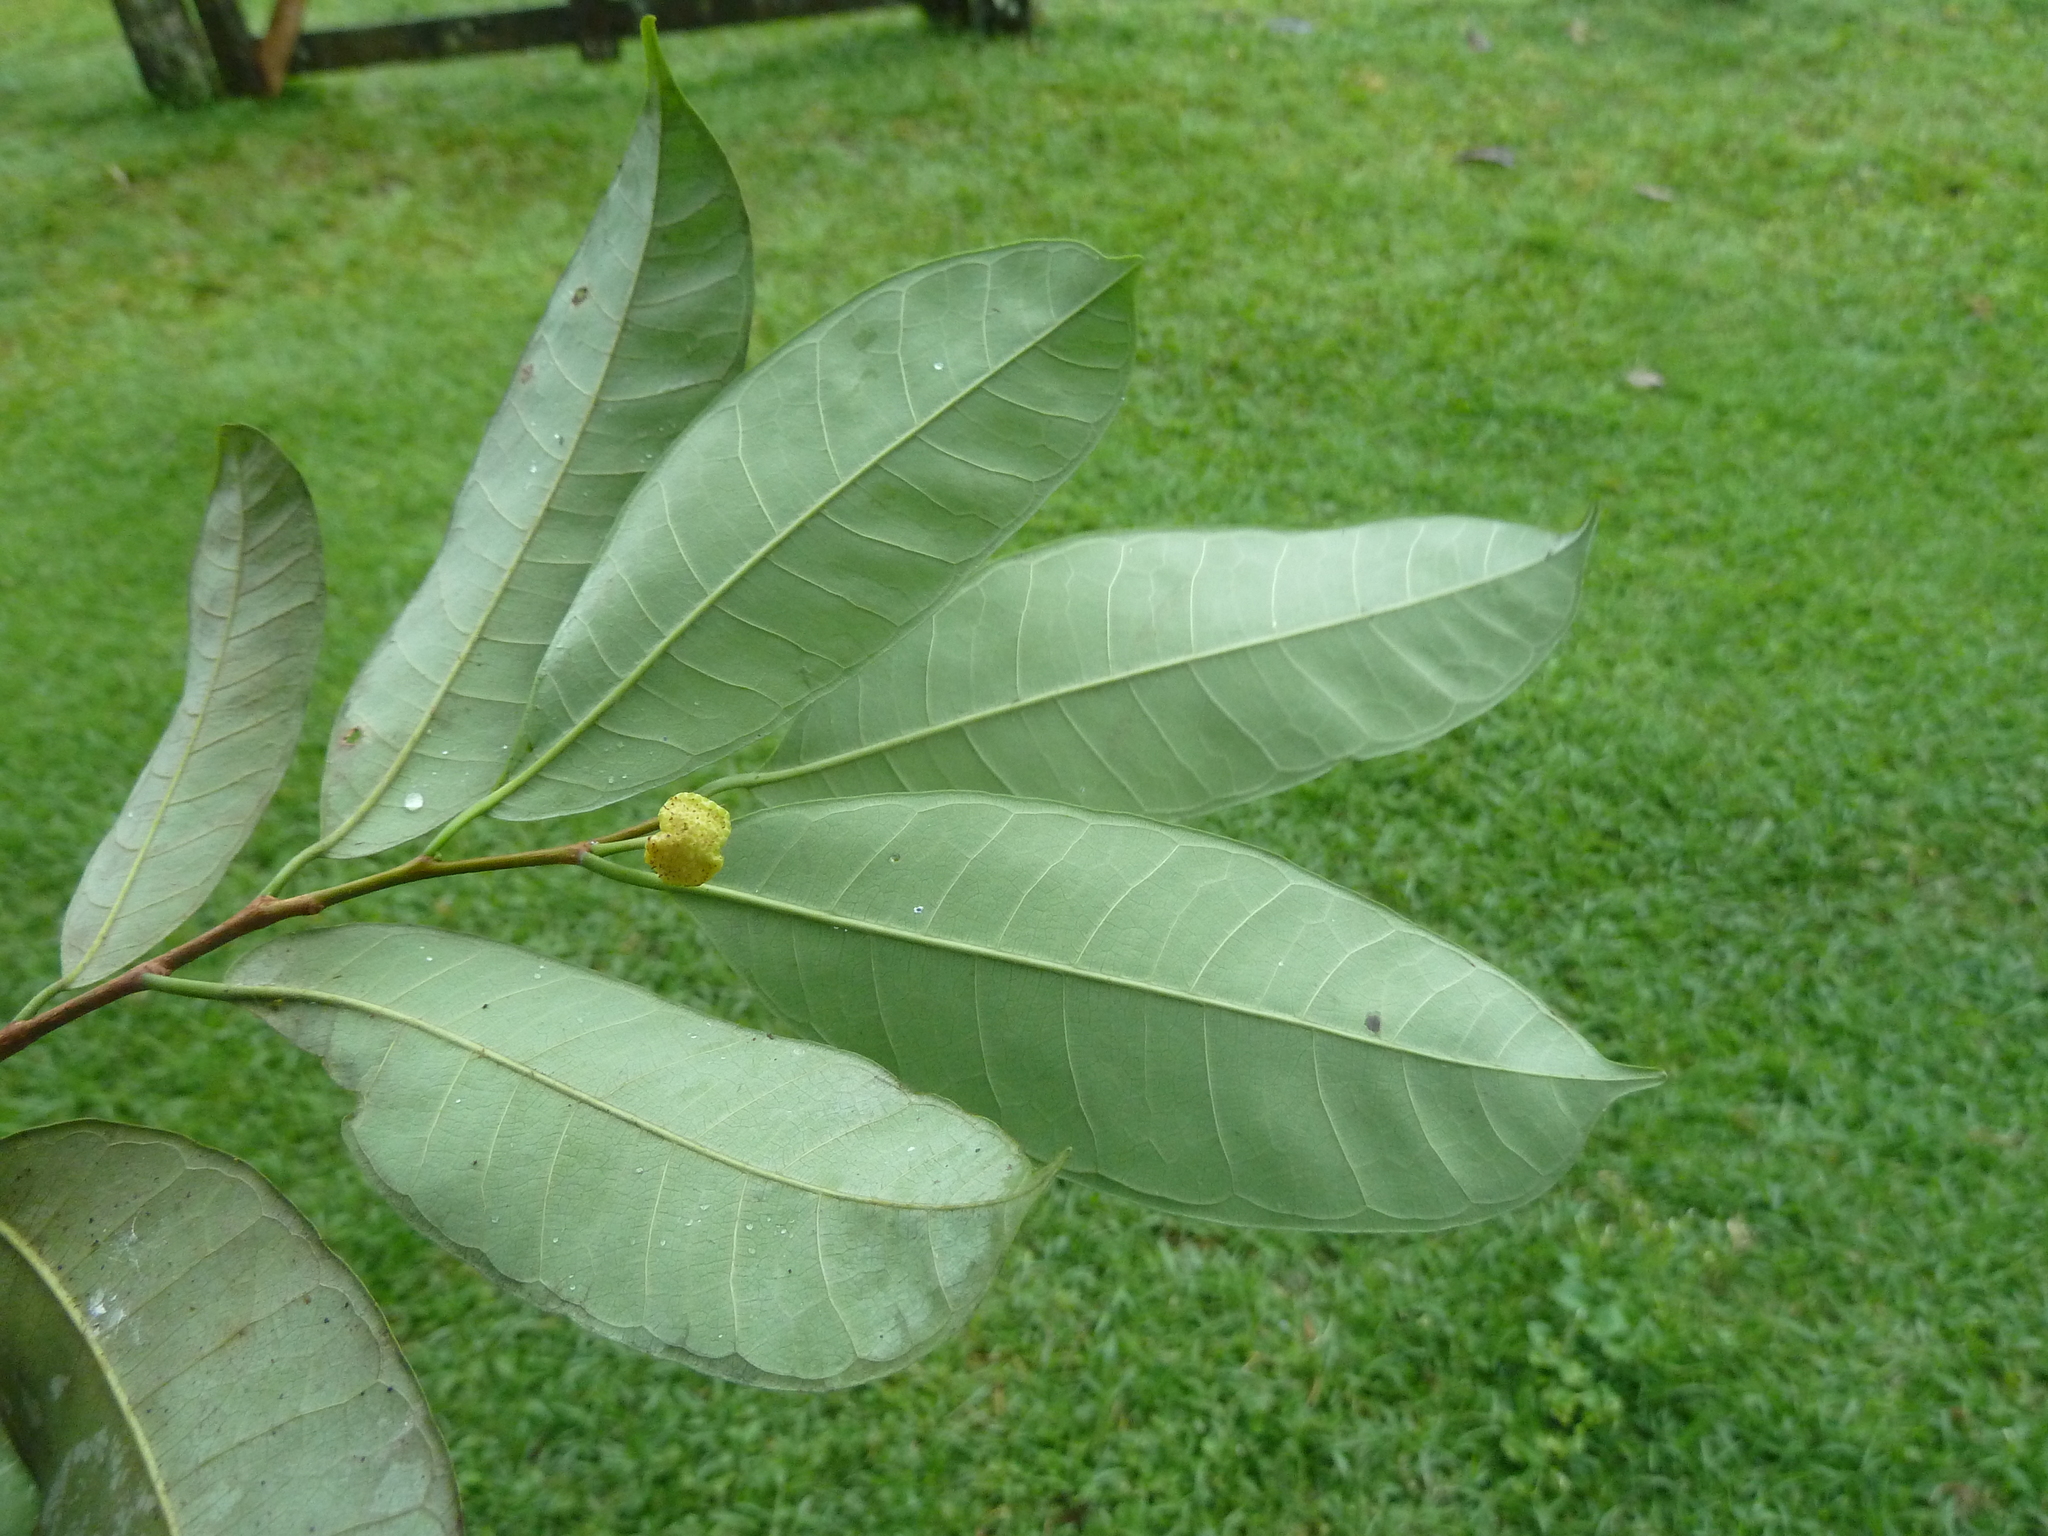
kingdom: Plantae
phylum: Tracheophyta
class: Magnoliopsida
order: Rosales
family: Moraceae
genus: Brosimum
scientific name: Brosimum guianense
